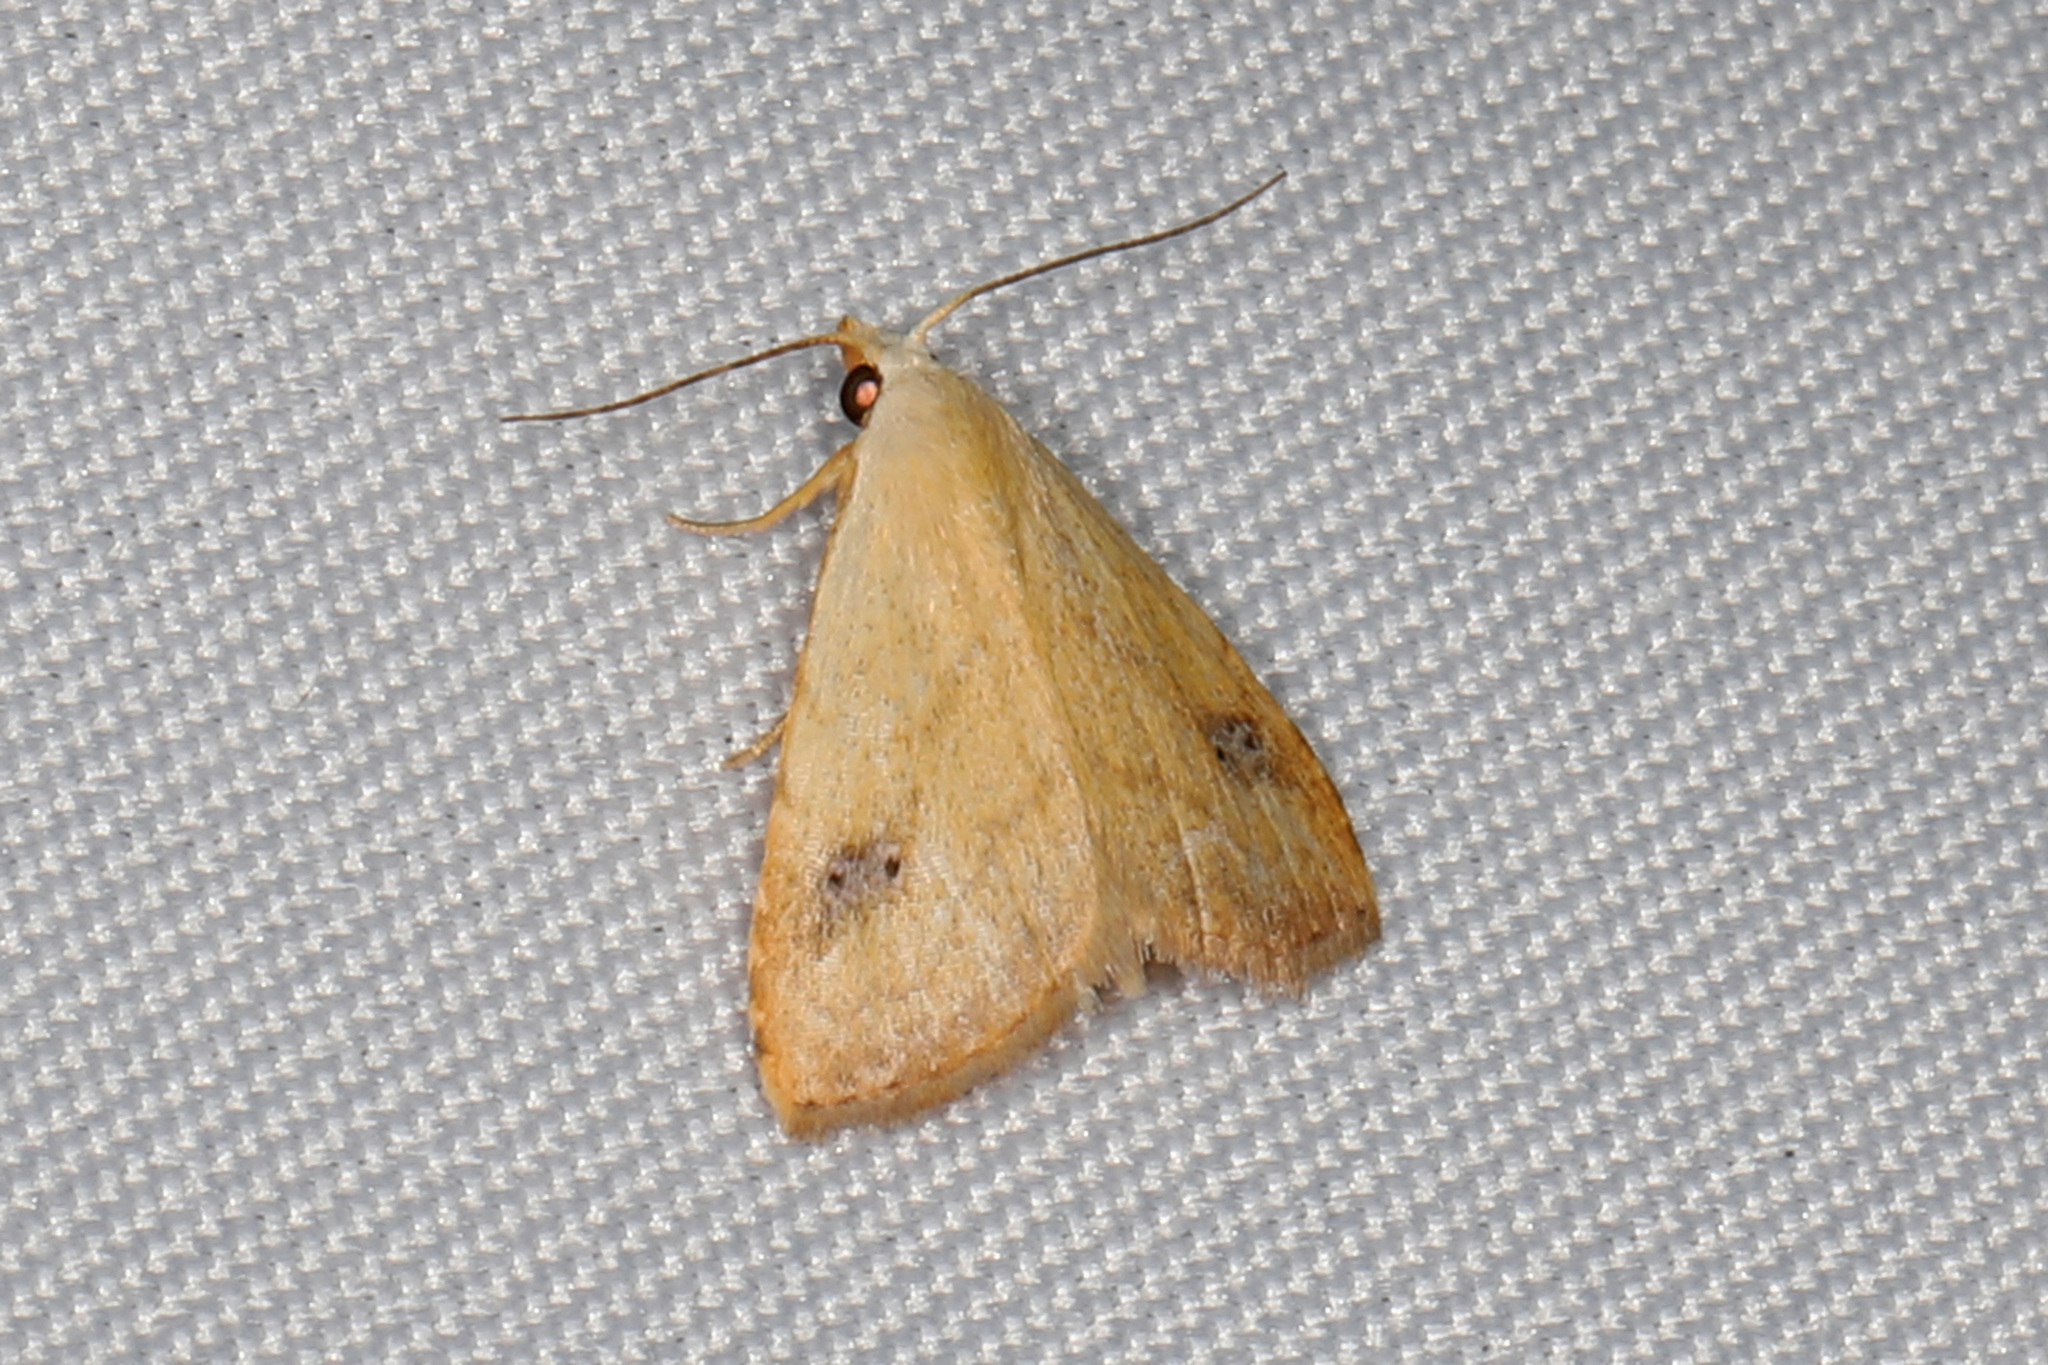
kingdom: Animalia
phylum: Arthropoda
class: Insecta
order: Lepidoptera
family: Erebidae
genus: Rivula
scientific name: Rivula propinqualis
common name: Spotted grass moth
